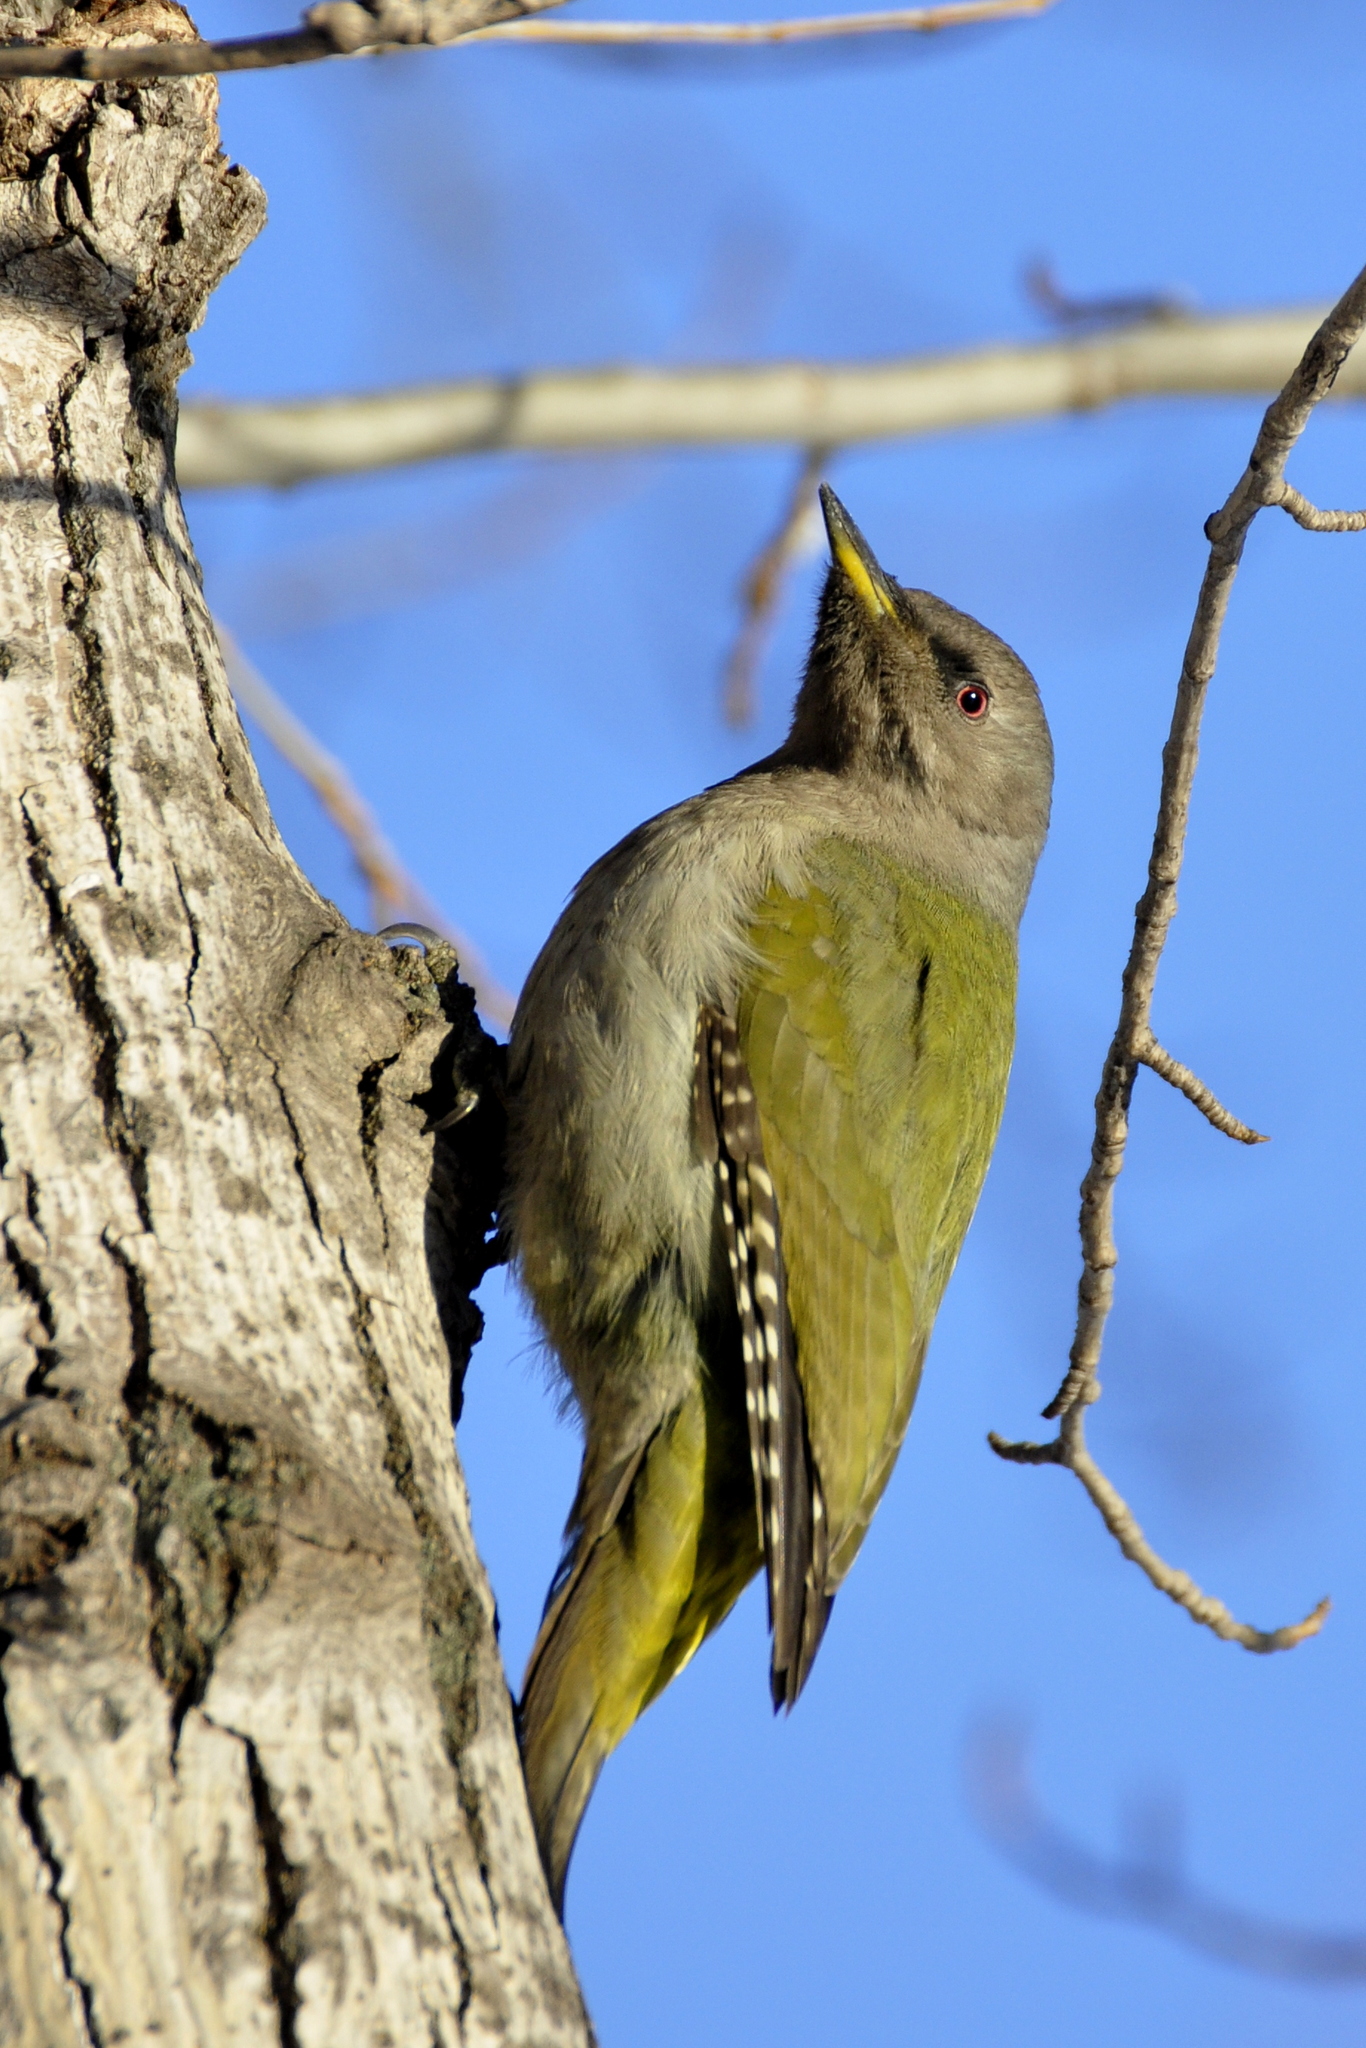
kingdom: Animalia
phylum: Chordata
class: Aves
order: Piciformes
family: Picidae
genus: Picus
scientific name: Picus canus
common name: Grey-headed woodpecker
